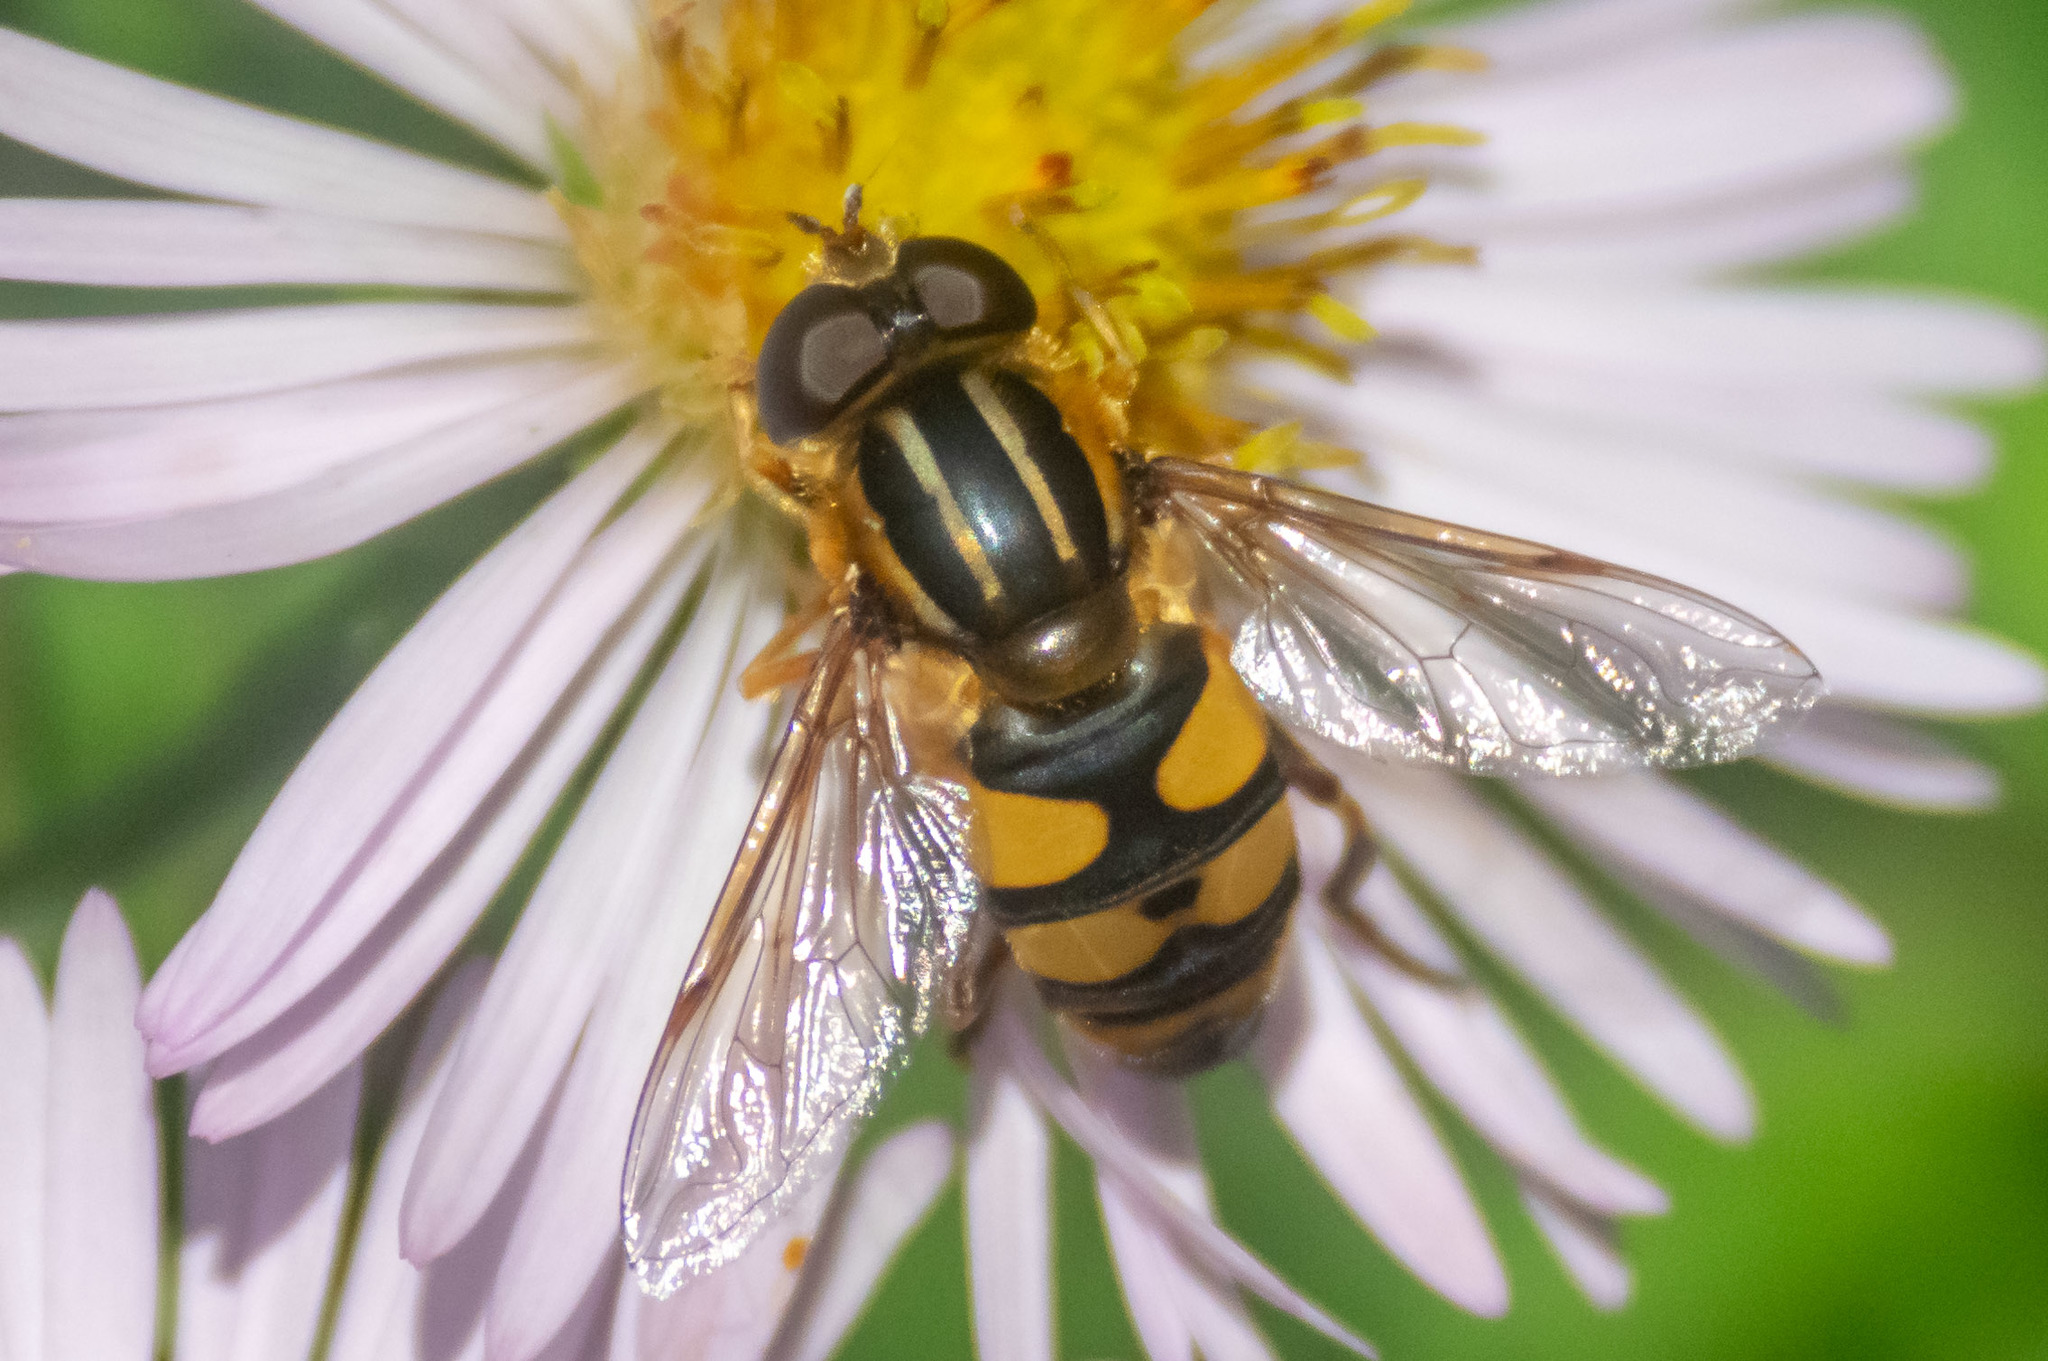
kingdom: Animalia
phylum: Arthropoda
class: Insecta
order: Diptera
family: Syrphidae
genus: Helophilus
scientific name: Helophilus fasciatus
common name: Narrow-headed marsh fly
